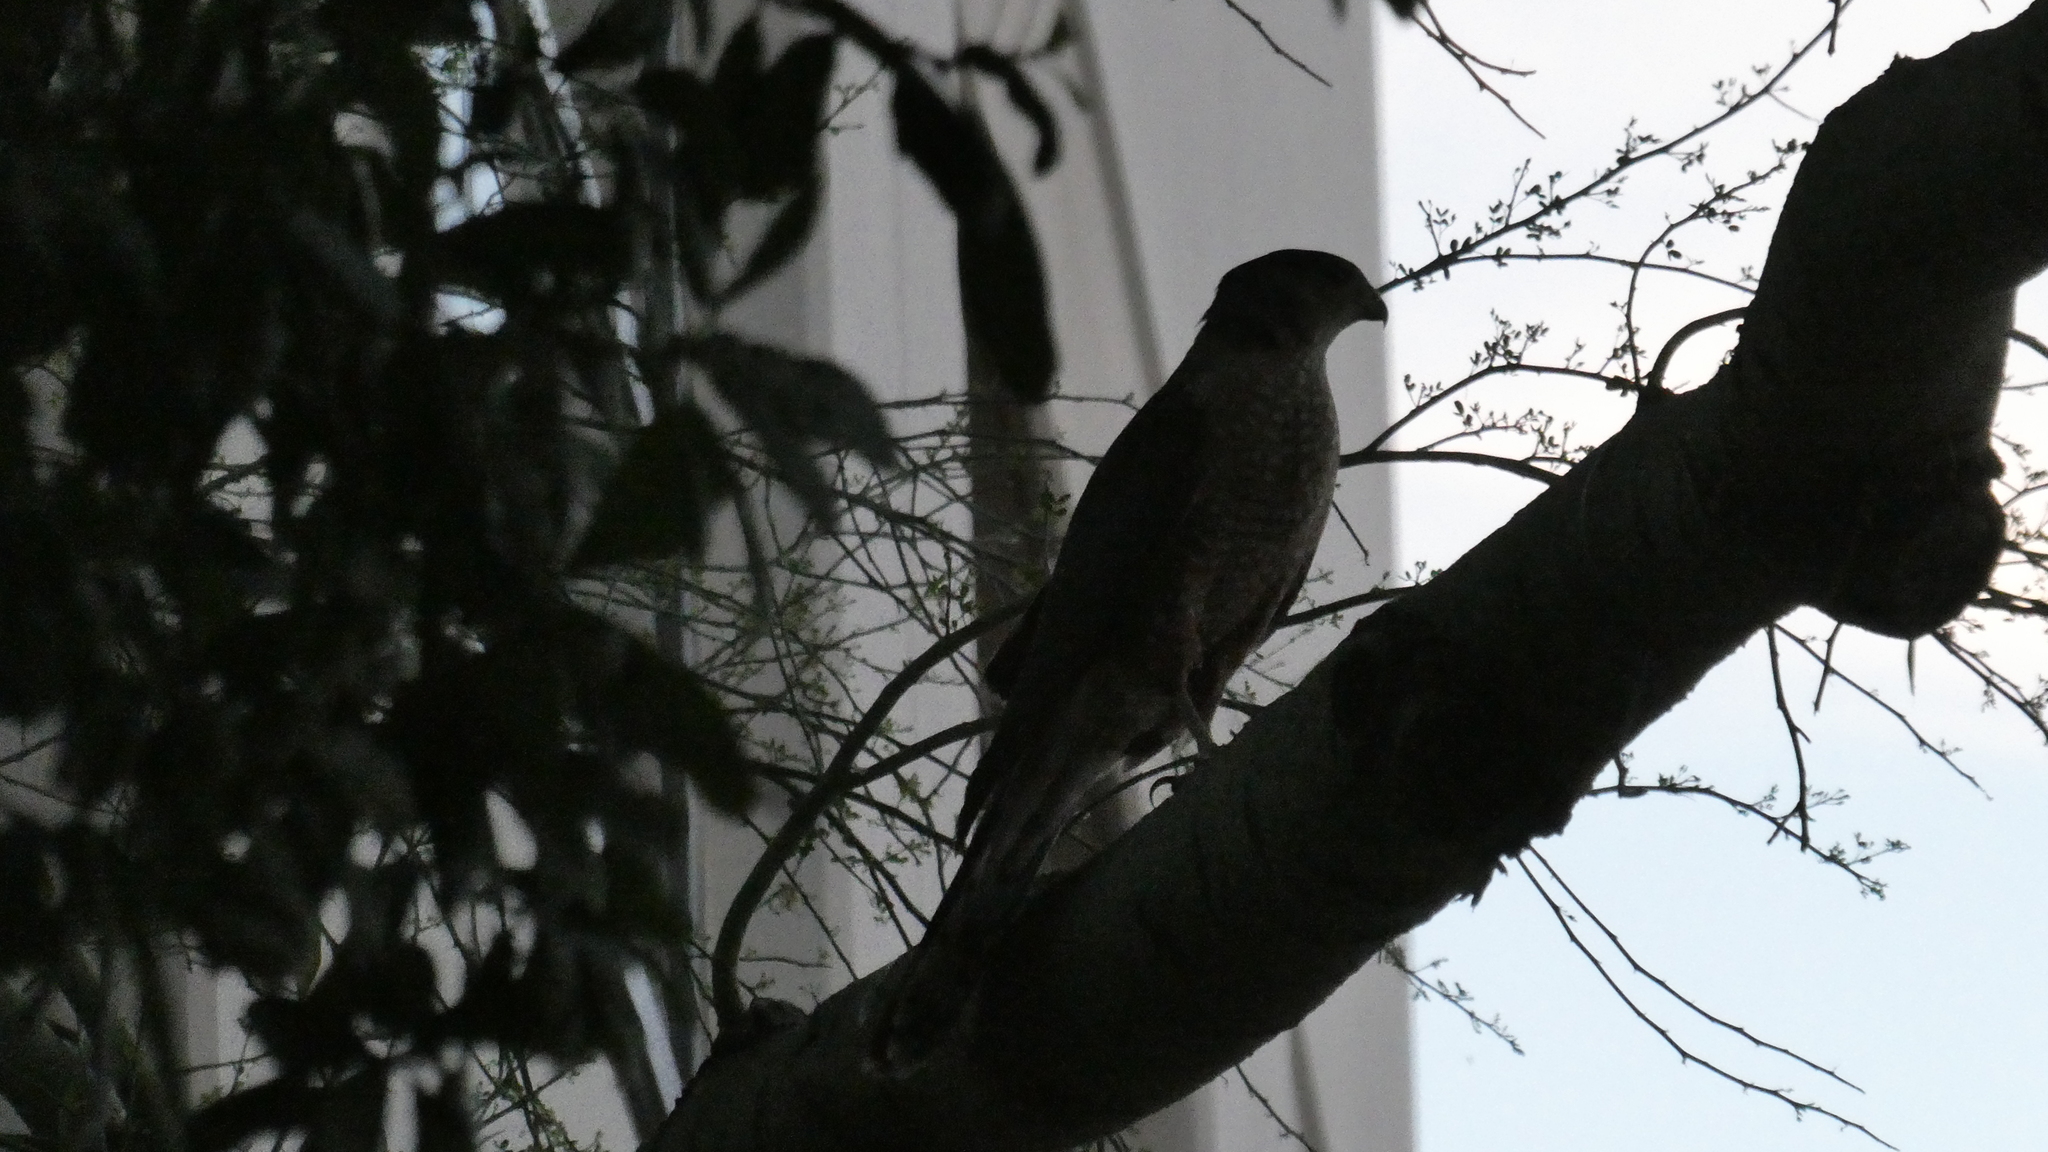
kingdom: Animalia
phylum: Chordata
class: Aves
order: Accipitriformes
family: Accipitridae
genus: Accipiter
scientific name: Accipiter cooperii
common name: Cooper's hawk
